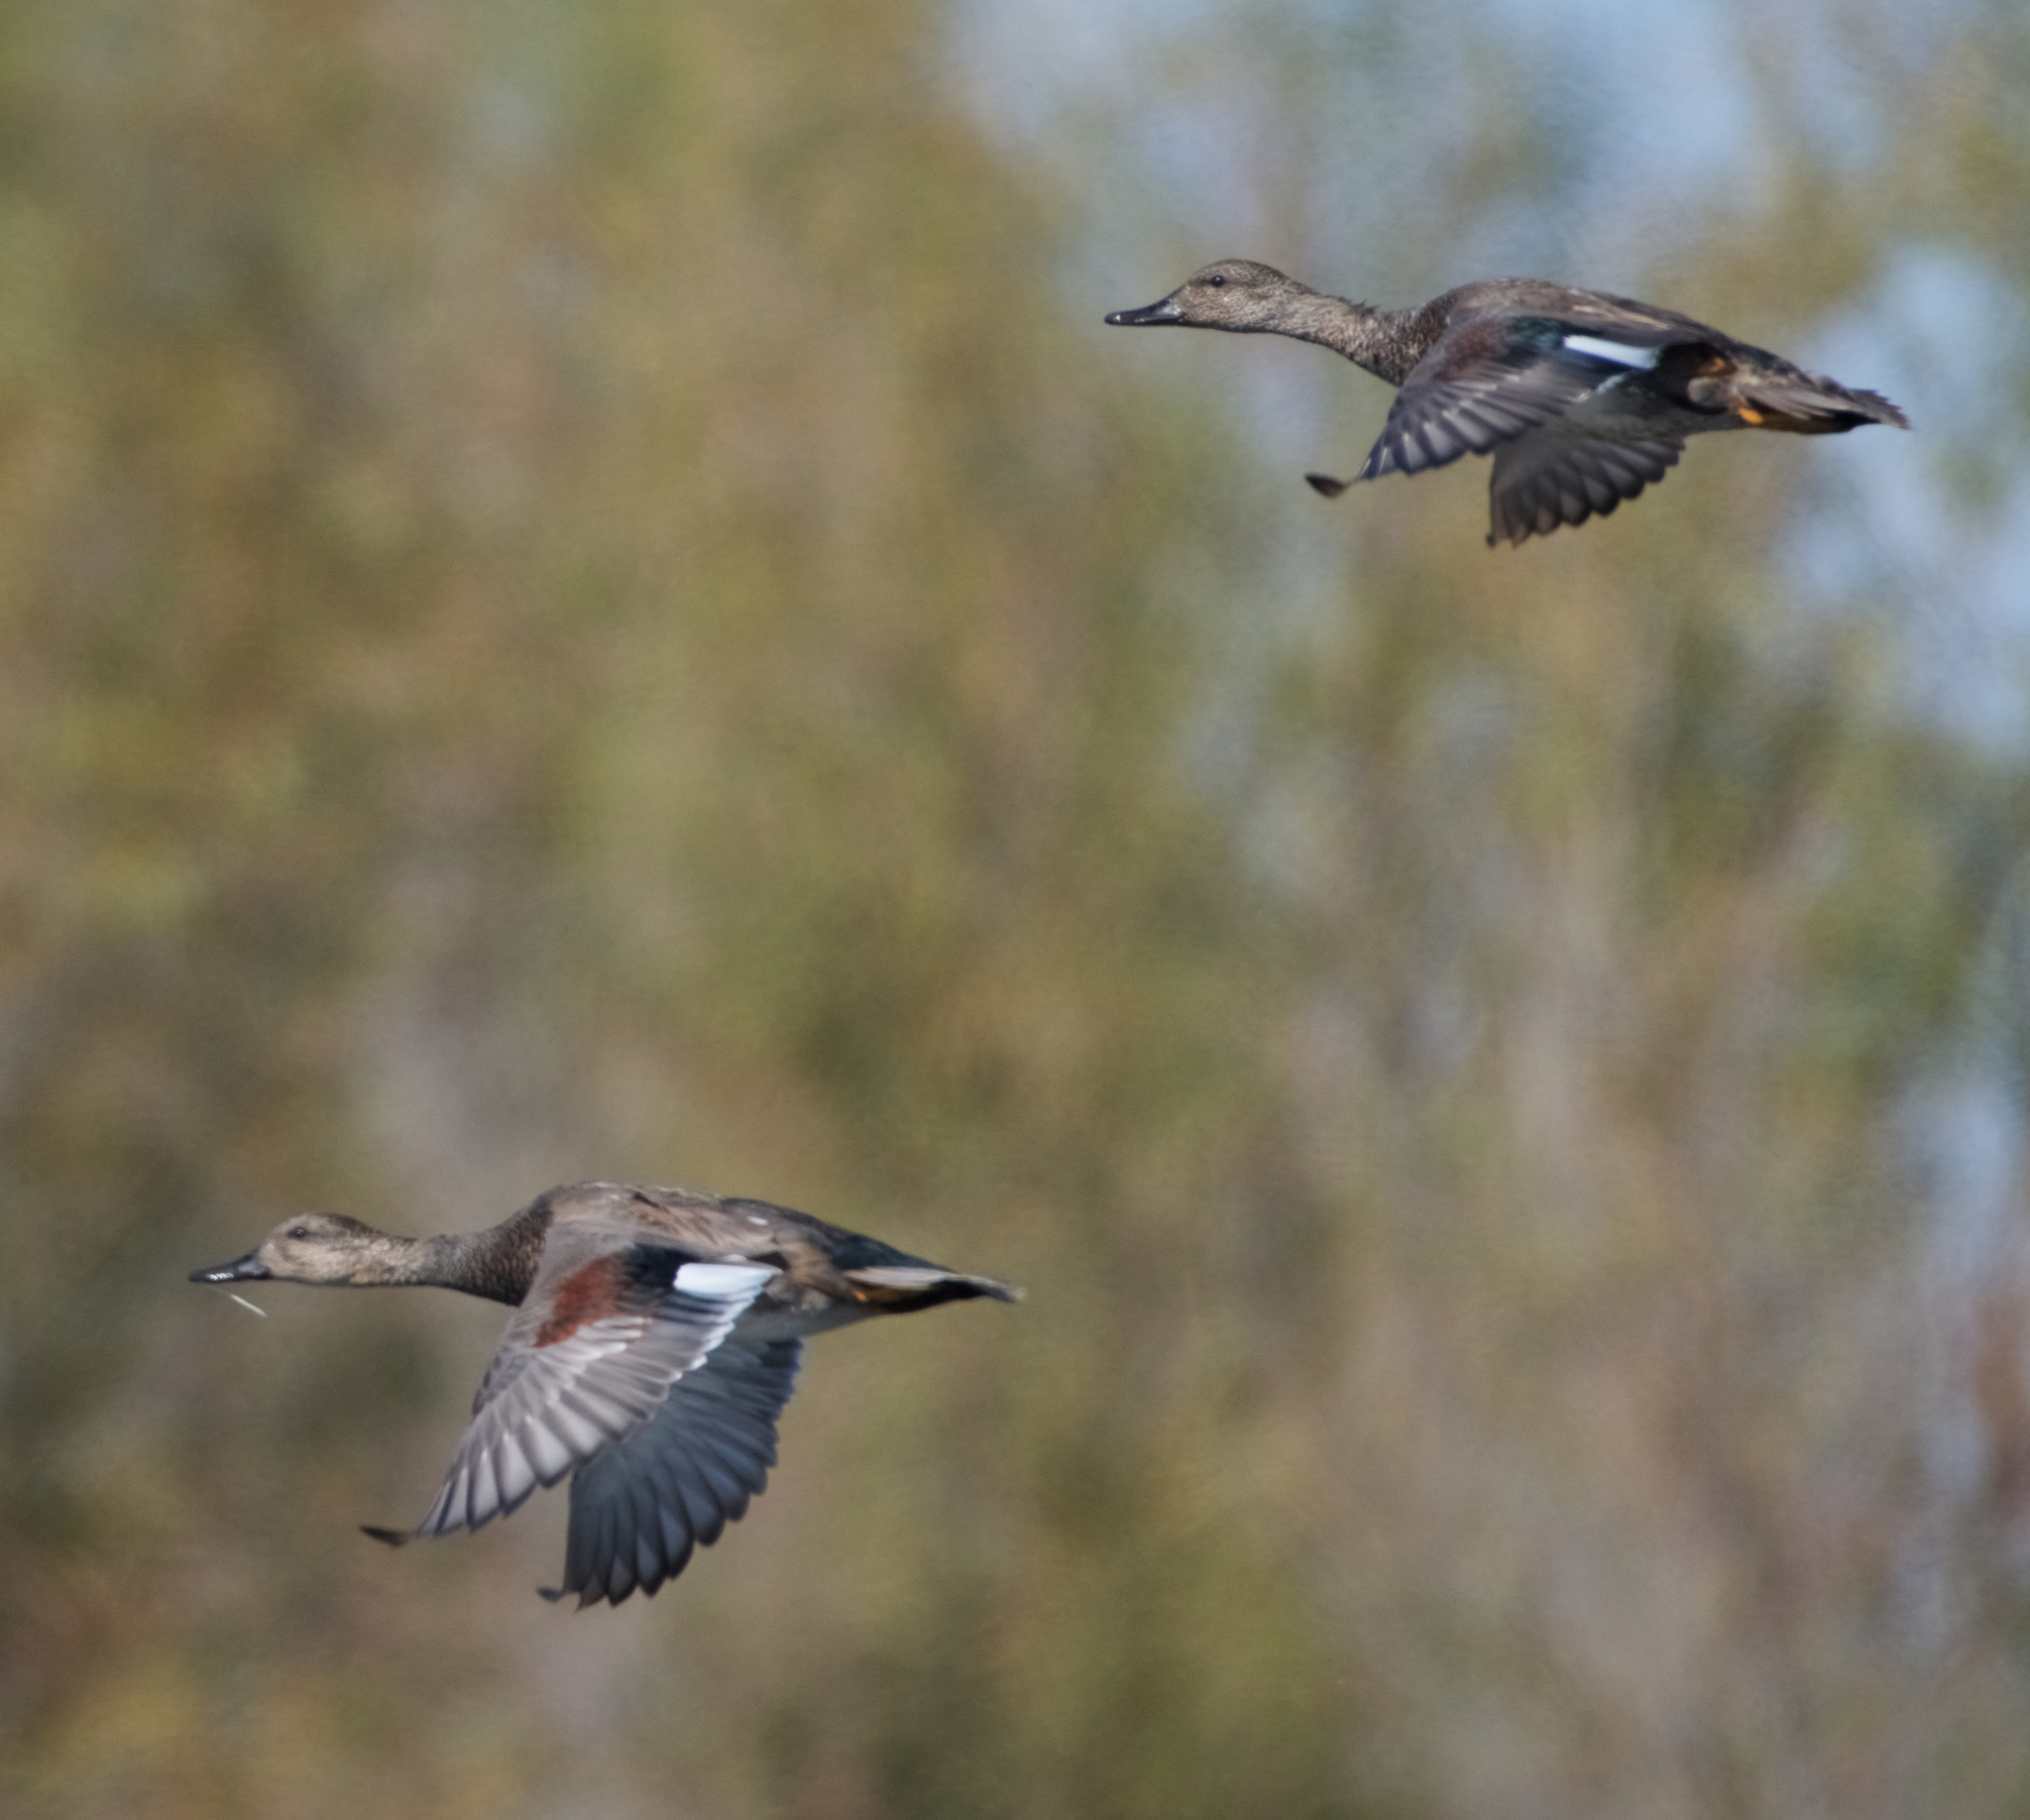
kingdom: Animalia
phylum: Chordata
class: Aves
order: Anseriformes
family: Anatidae
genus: Mareca
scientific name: Mareca strepera
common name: Gadwall
